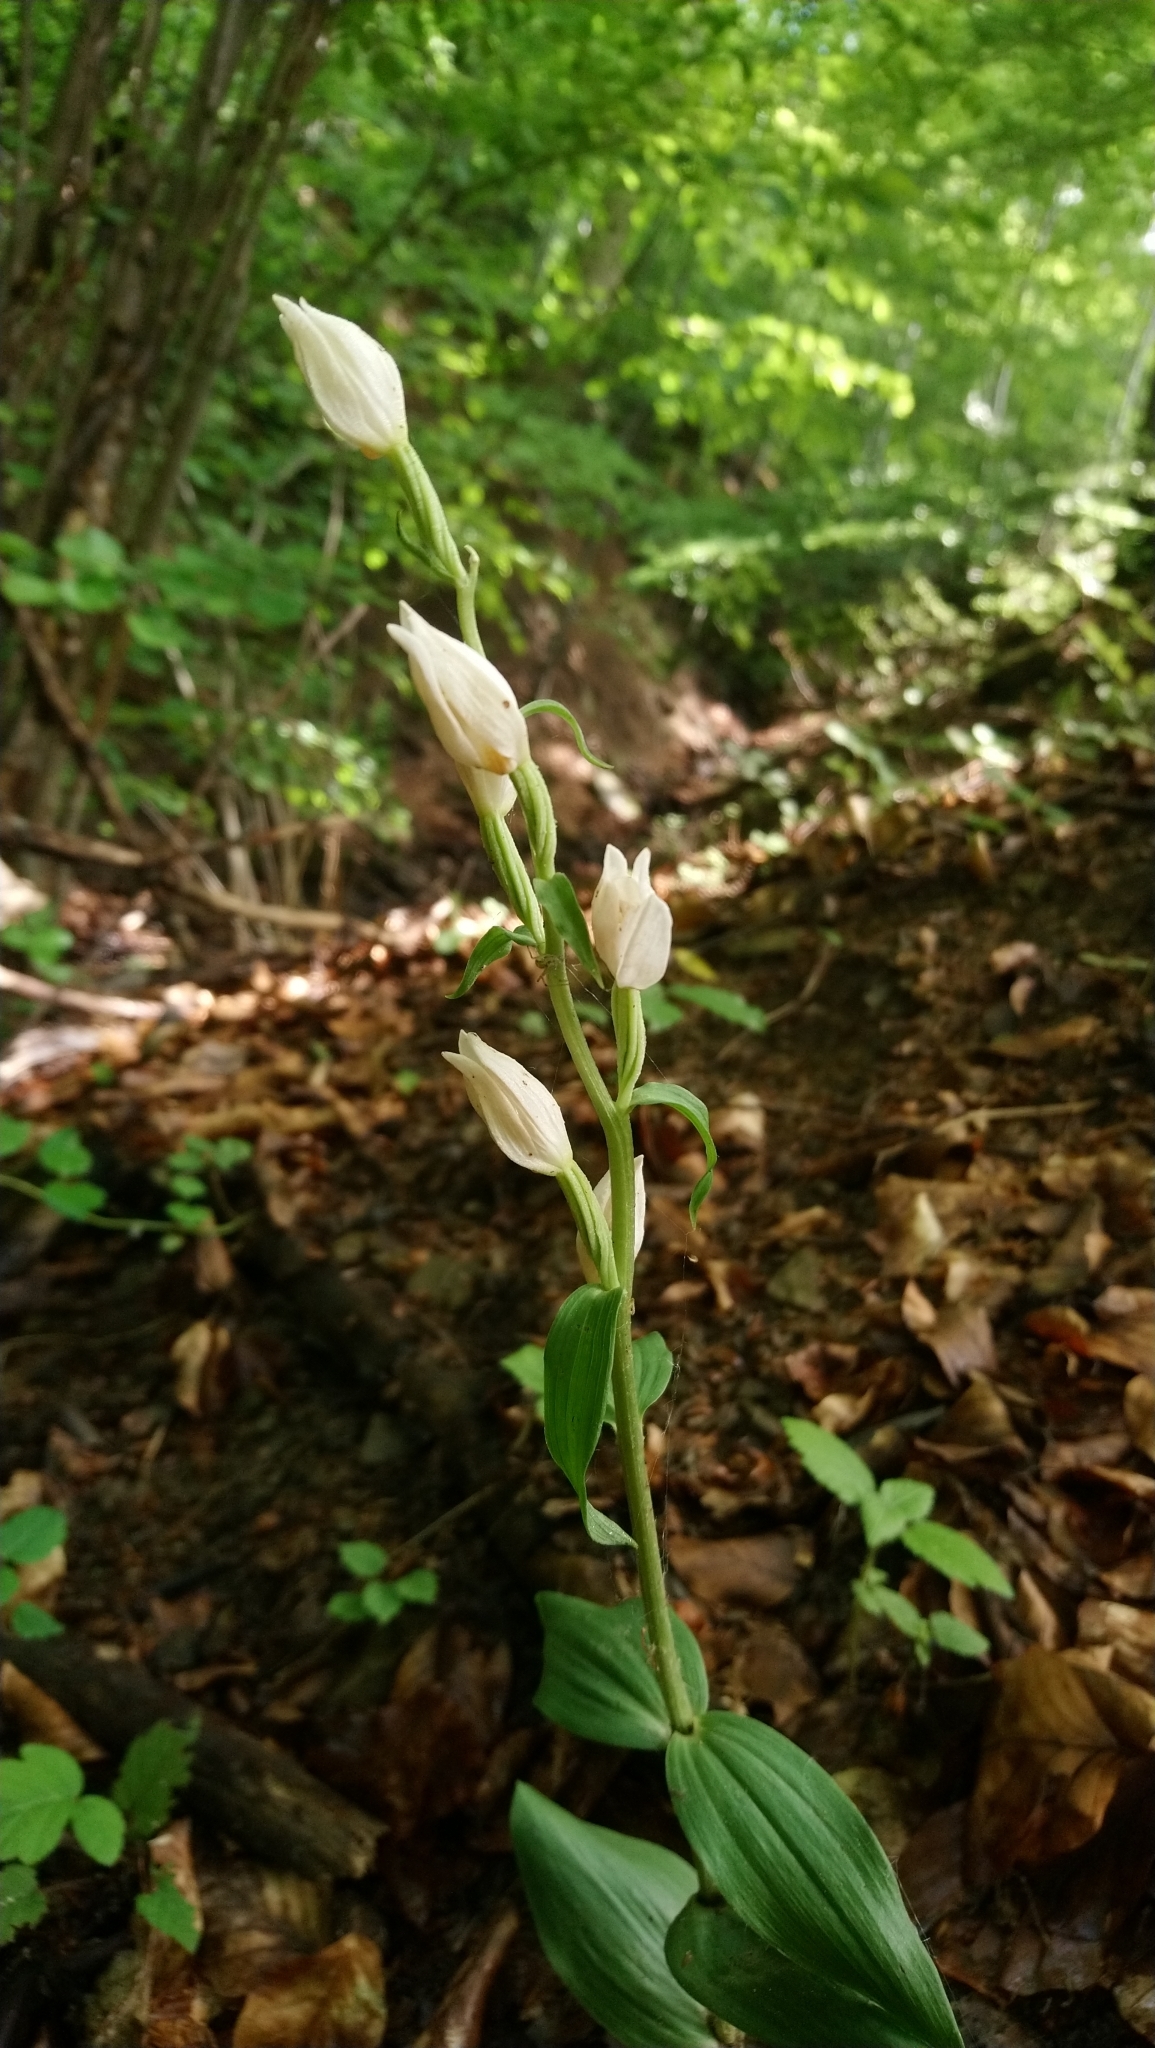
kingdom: Plantae
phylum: Tracheophyta
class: Liliopsida
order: Asparagales
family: Orchidaceae
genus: Cephalanthera
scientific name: Cephalanthera damasonium
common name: White helleborine
